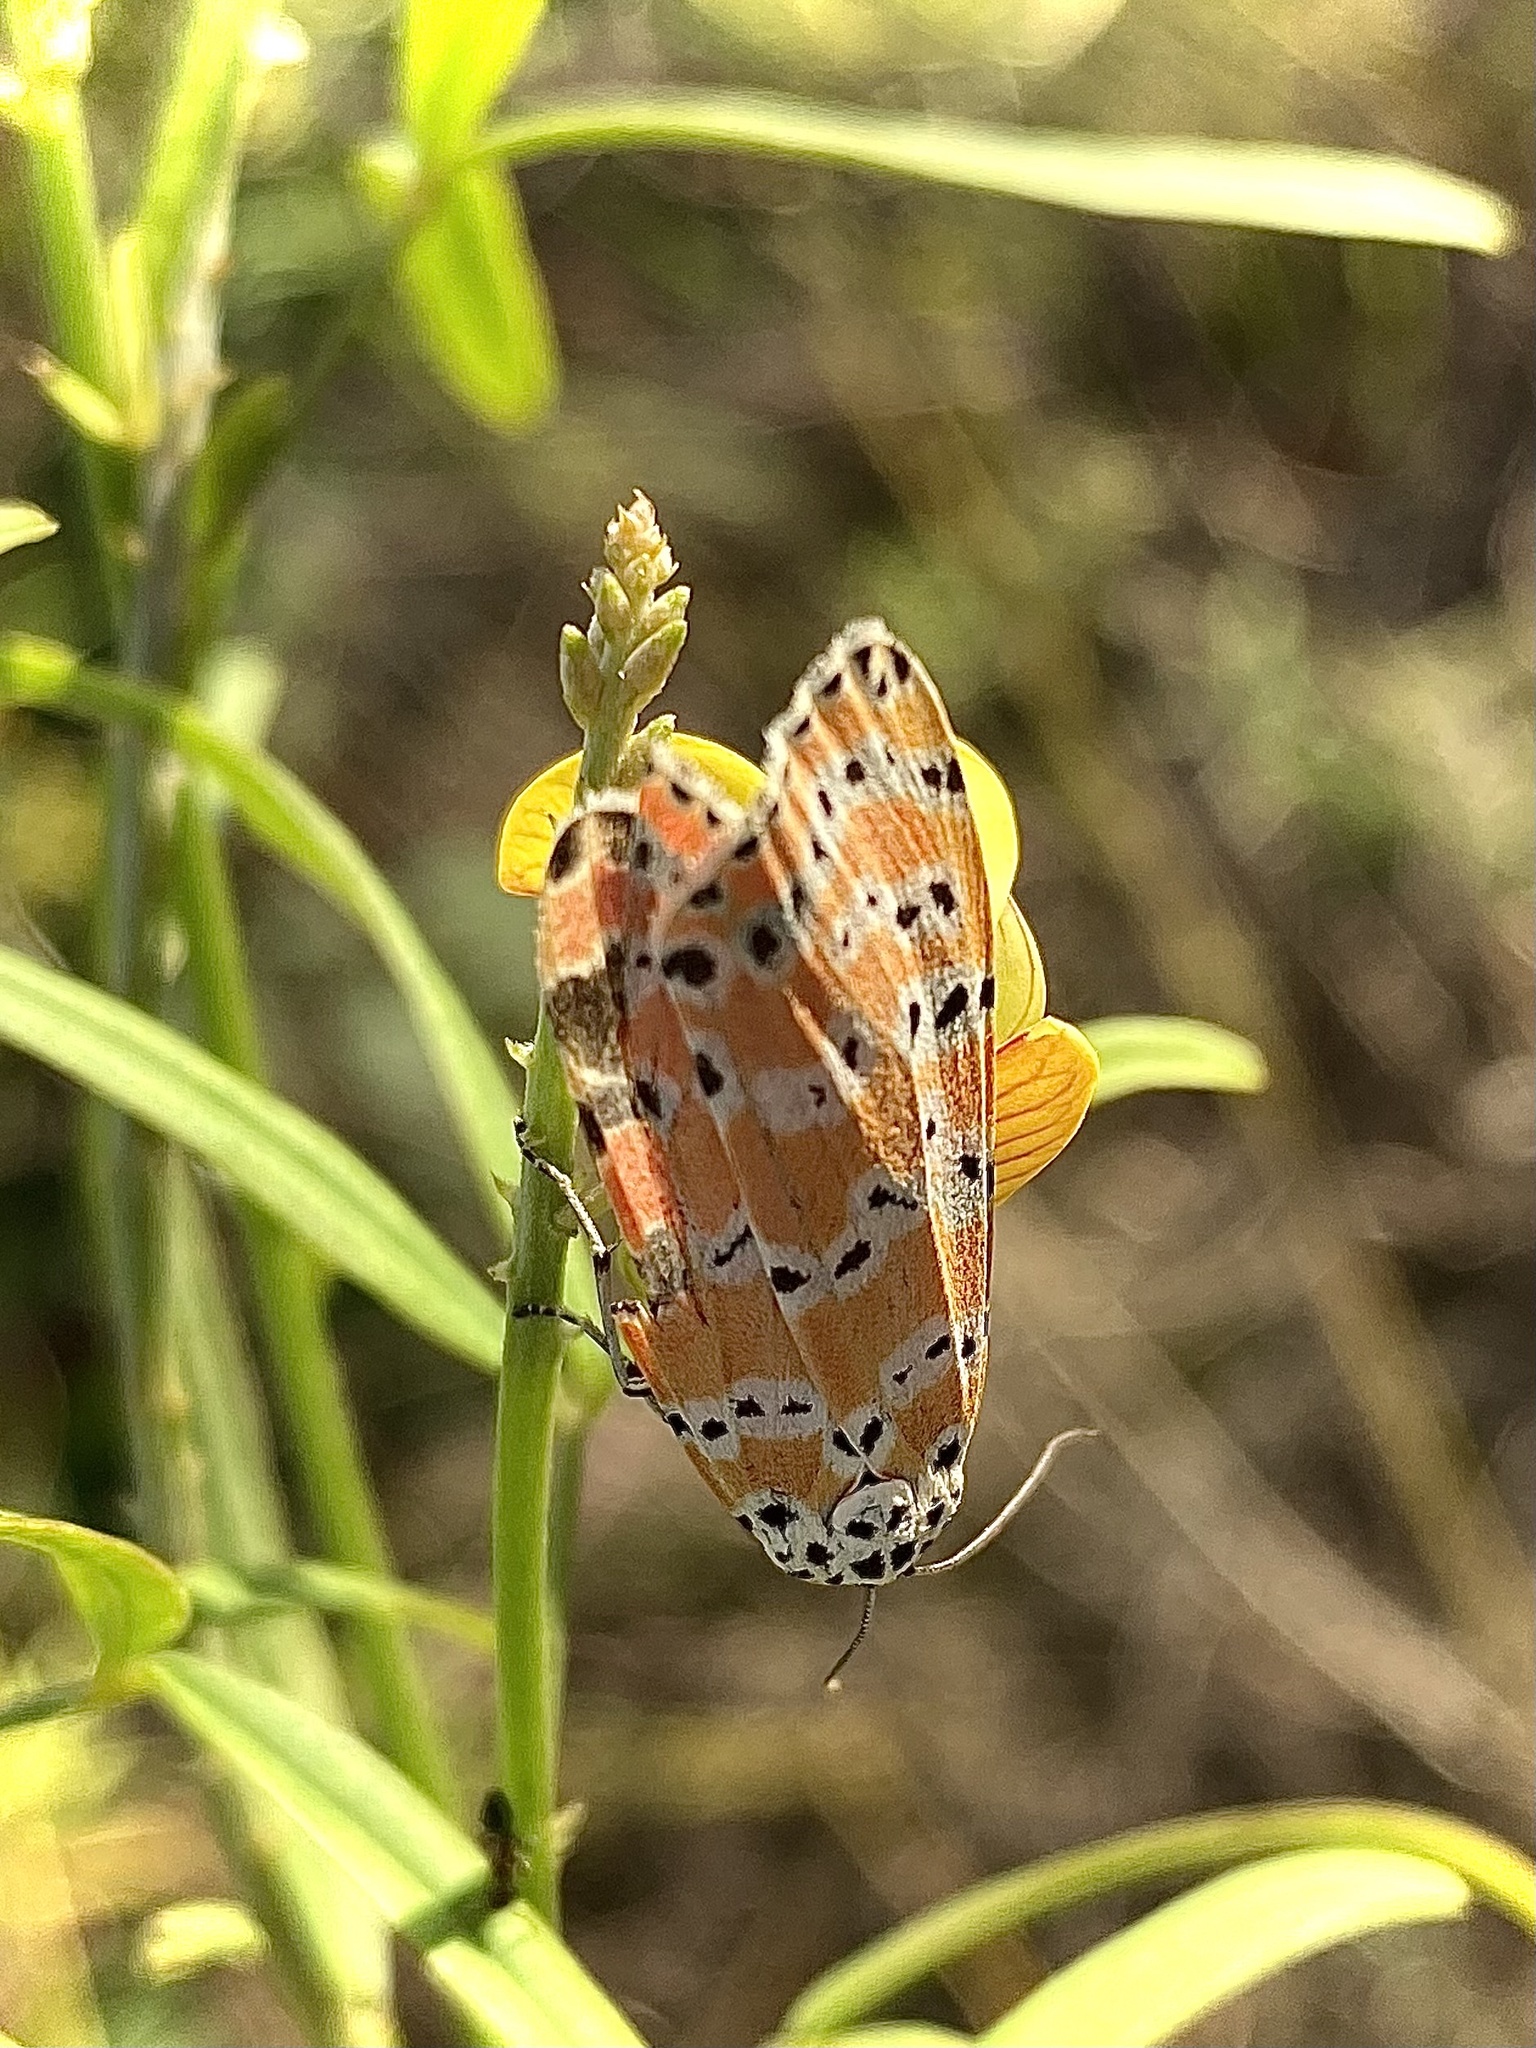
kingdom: Animalia
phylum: Arthropoda
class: Insecta
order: Lepidoptera
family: Erebidae
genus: Utetheisa
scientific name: Utetheisa ornatrix
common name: Beautiful utetheisa
